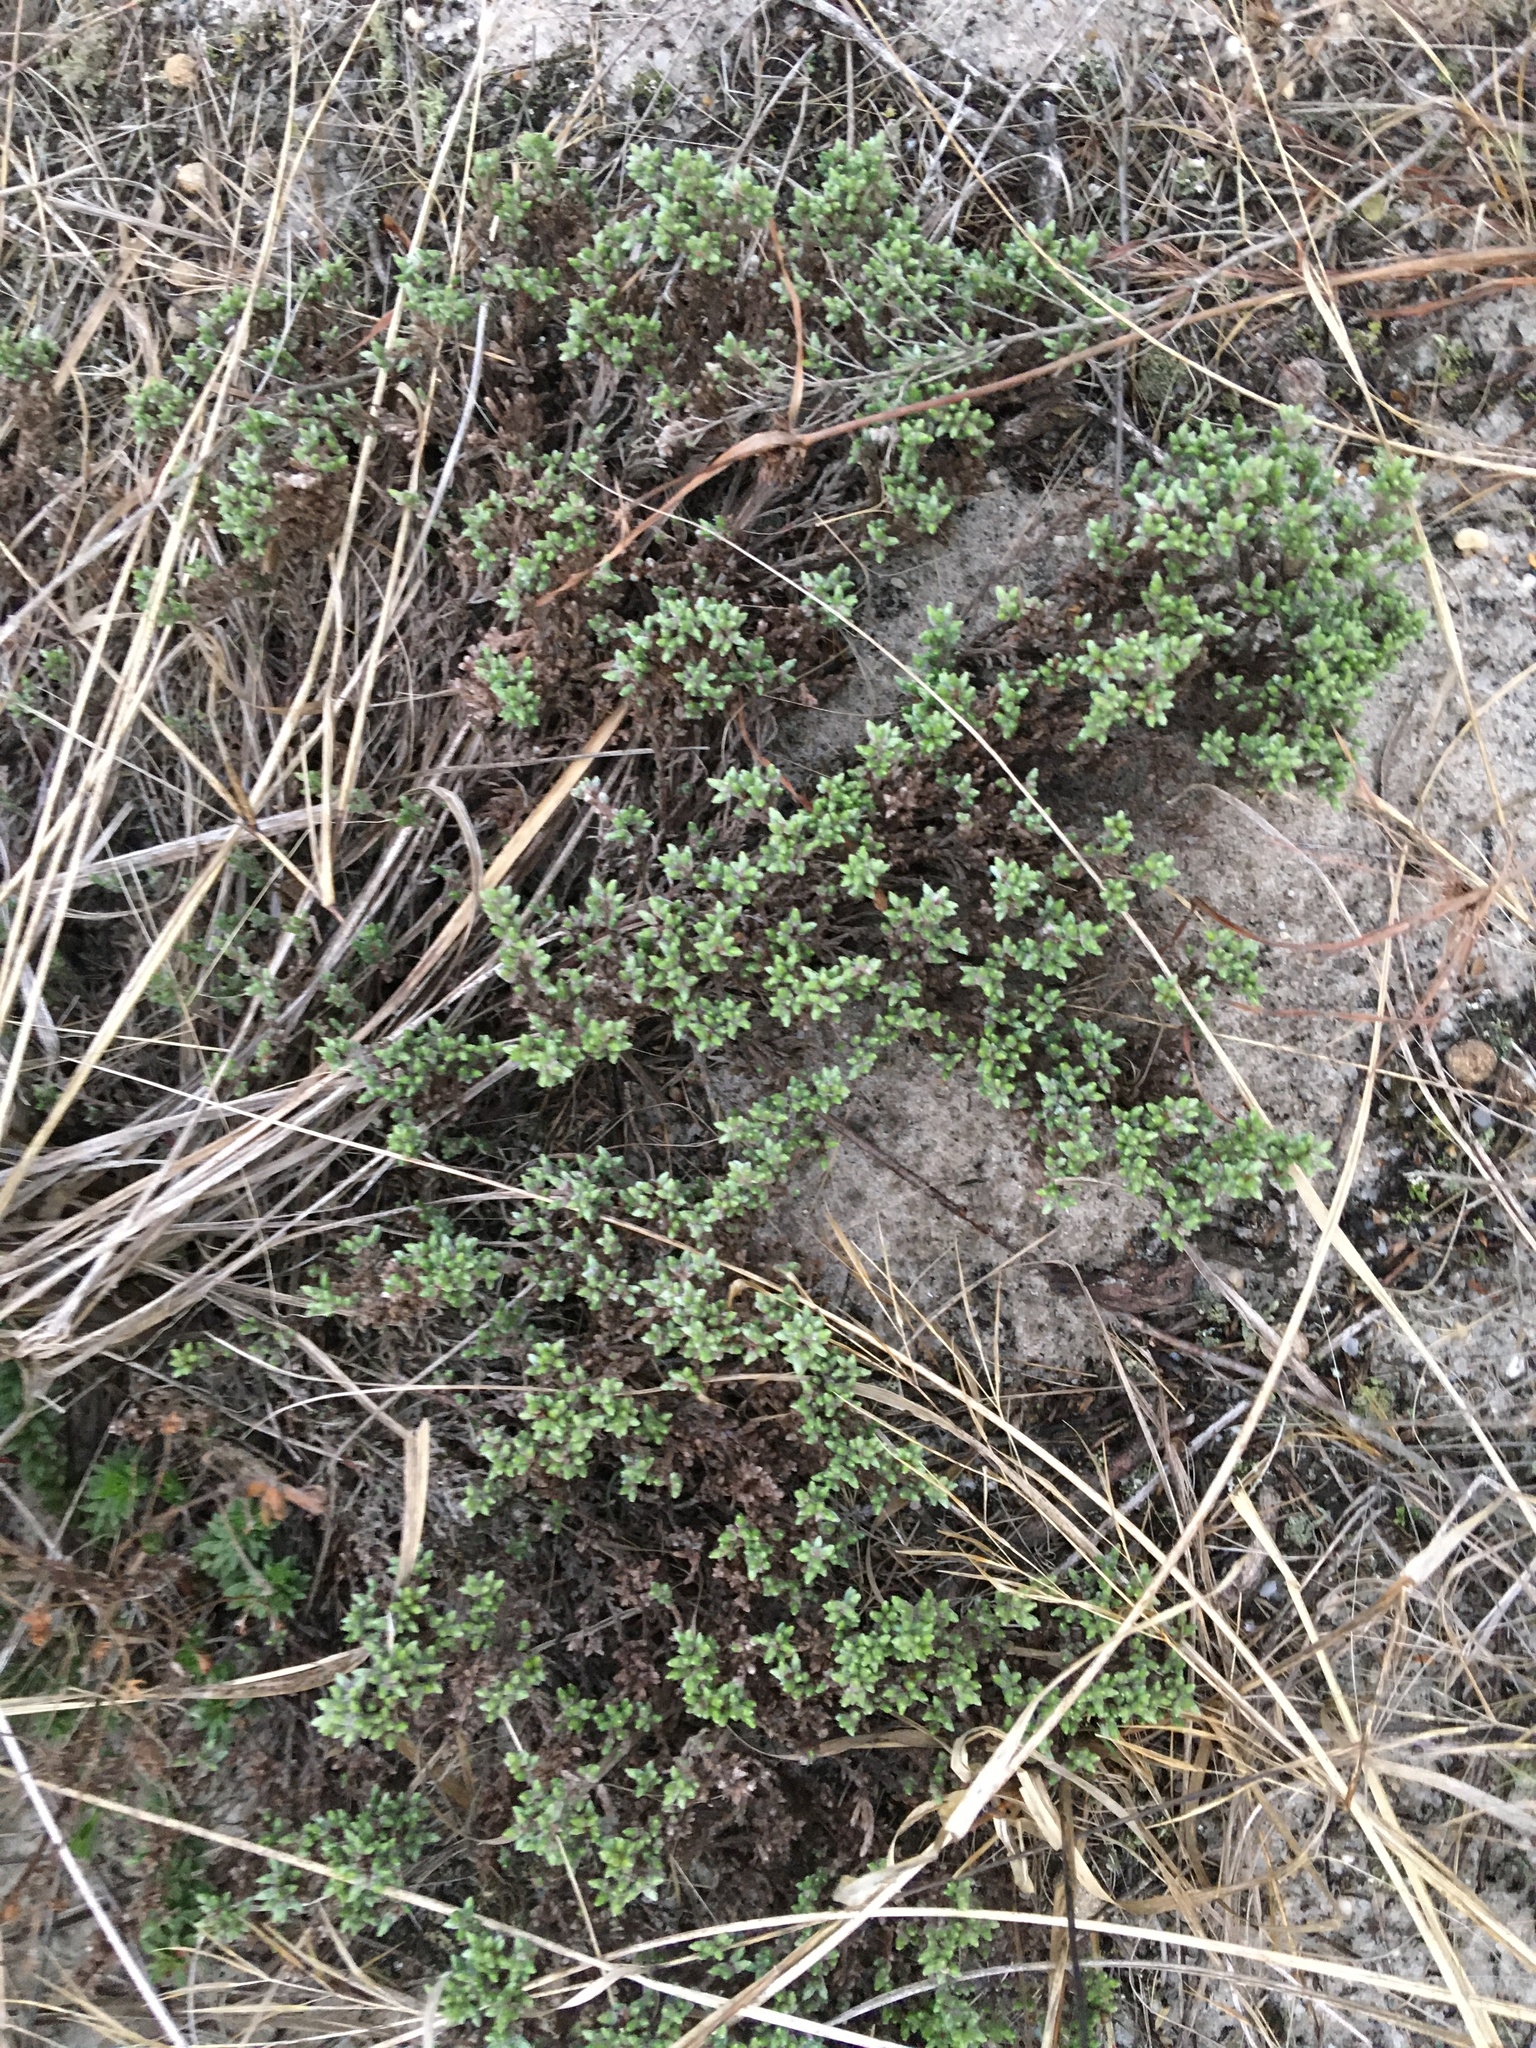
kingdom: Plantae
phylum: Tracheophyta
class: Magnoliopsida
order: Malvales
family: Cistaceae
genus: Hudsonia
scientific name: Hudsonia tomentosa
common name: Beach-heath
